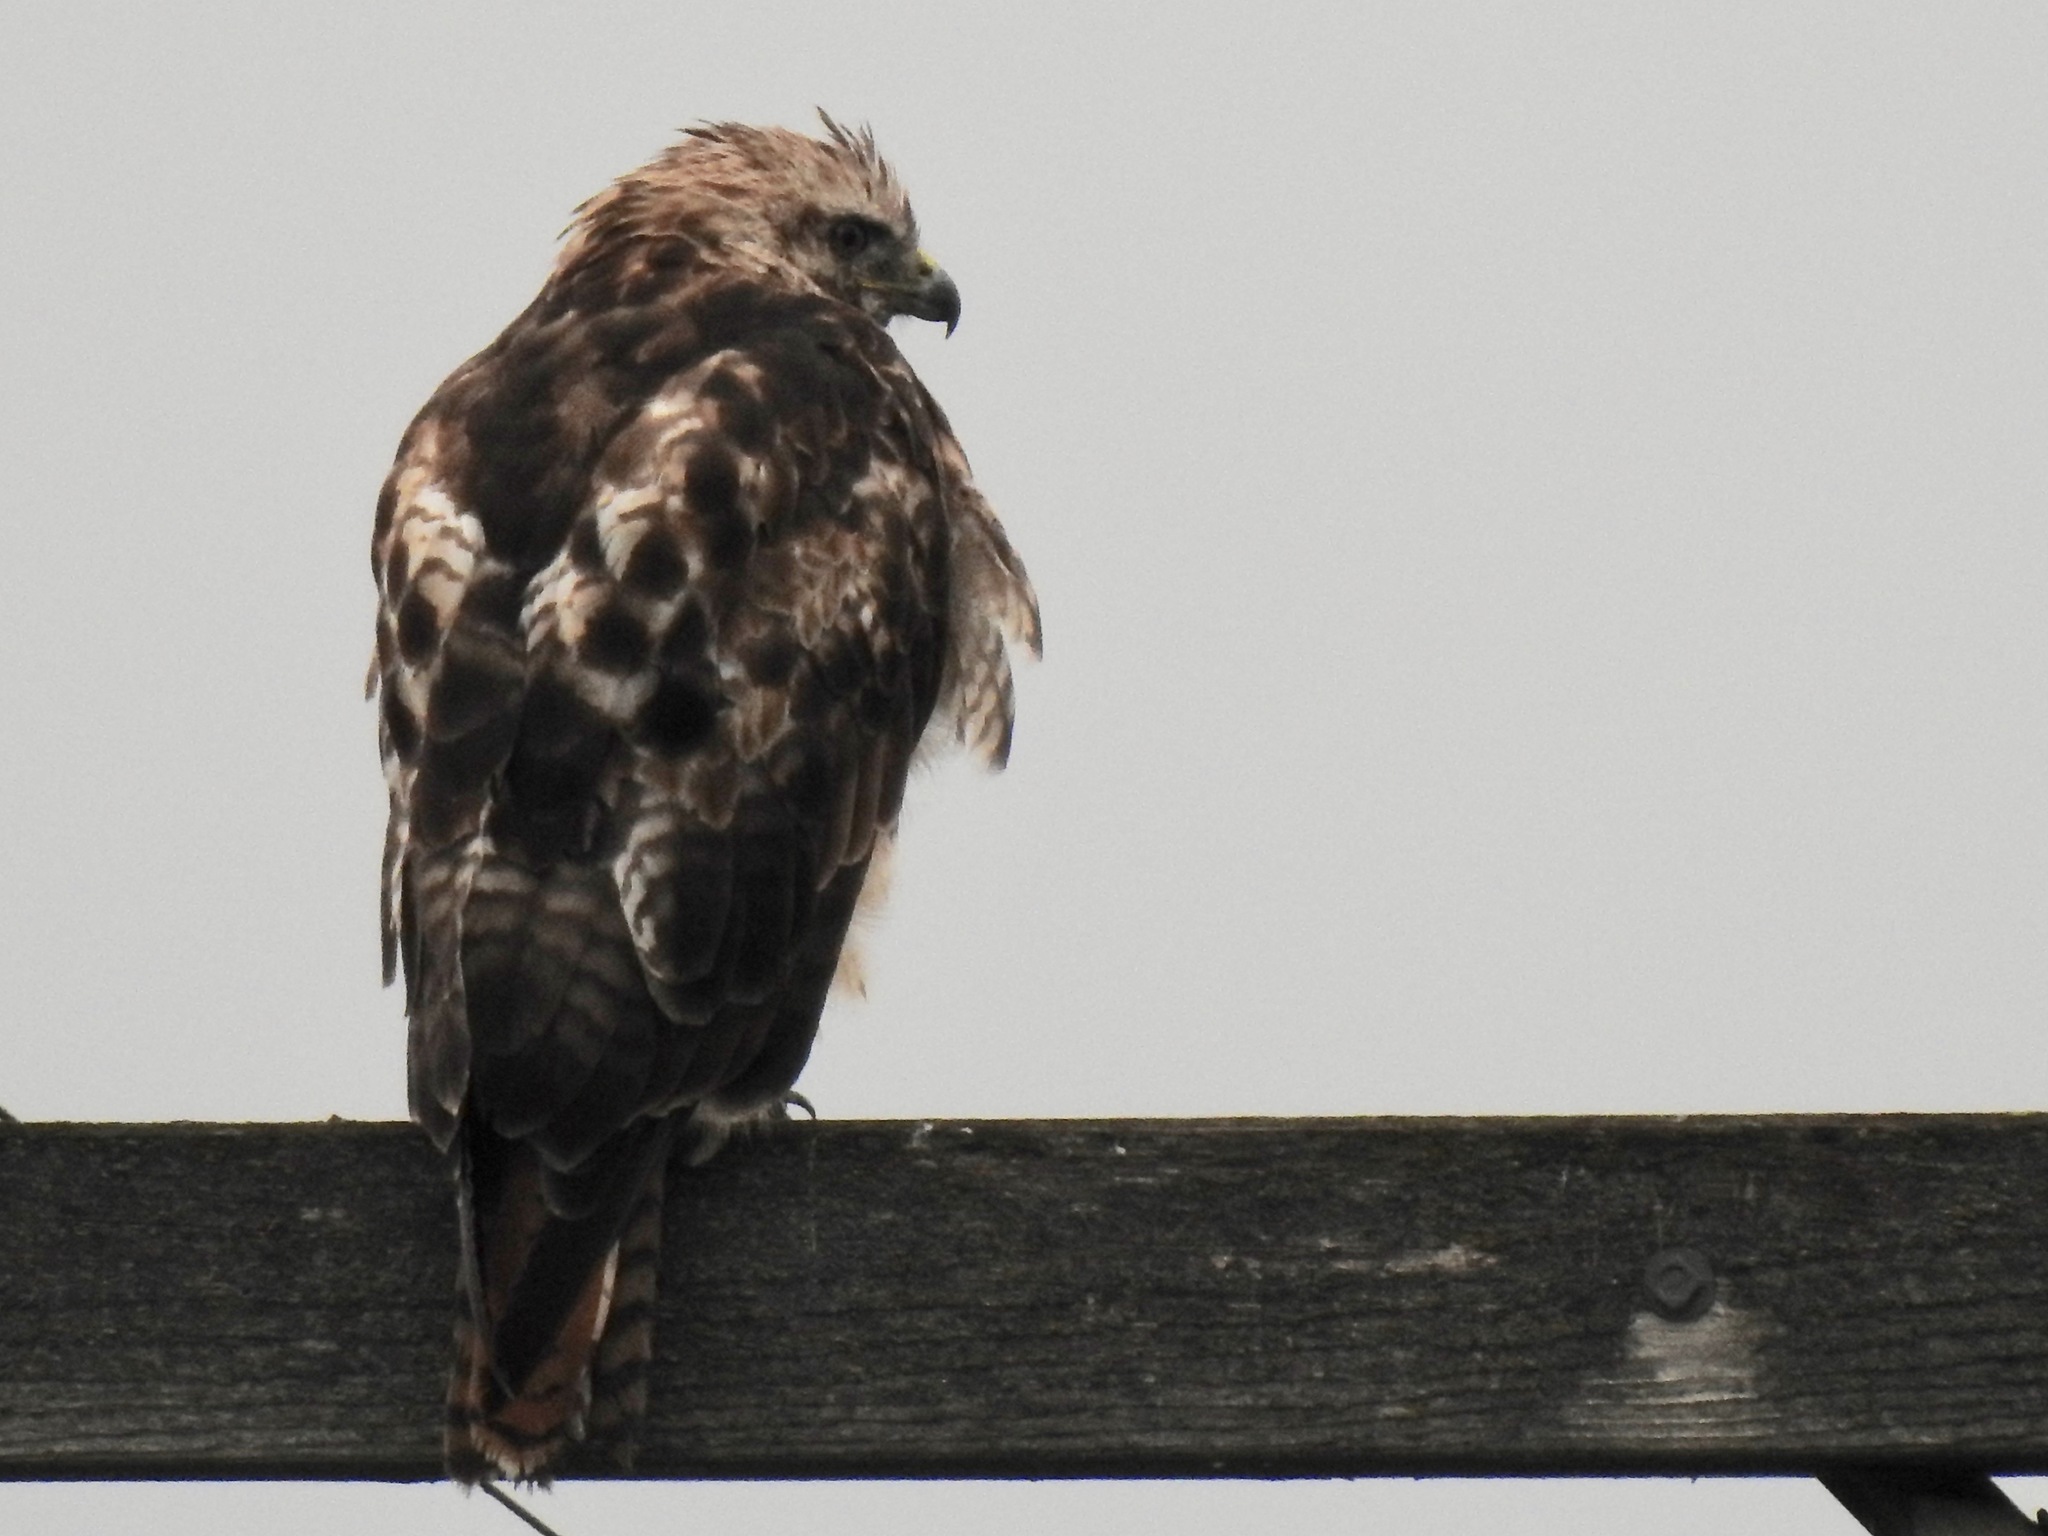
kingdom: Animalia
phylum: Chordata
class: Aves
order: Accipitriformes
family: Accipitridae
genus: Buteo
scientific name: Buteo jamaicensis
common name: Red-tailed hawk
